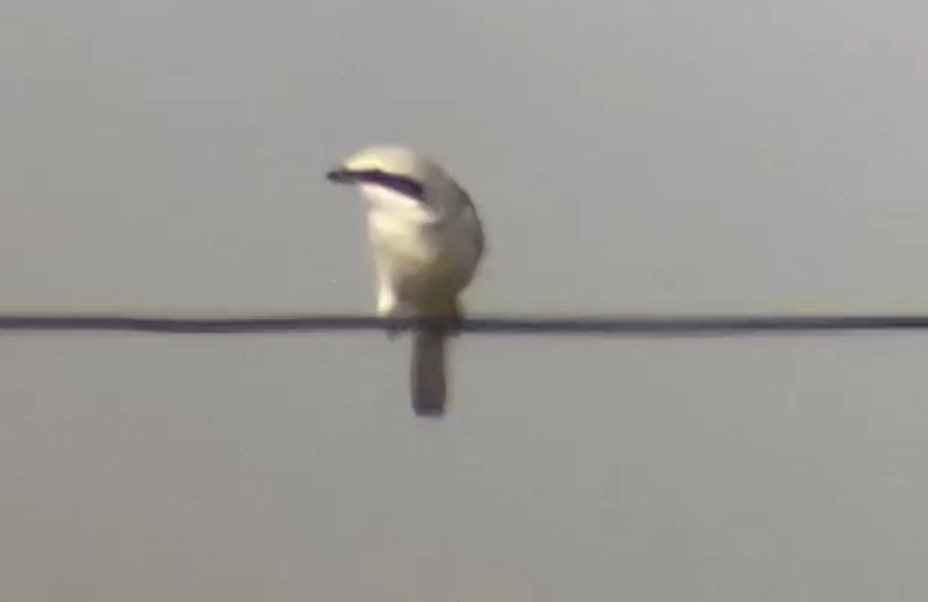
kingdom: Animalia
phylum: Chordata
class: Aves
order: Passeriformes
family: Laniidae
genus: Lanius
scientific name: Lanius excubitor
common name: Great grey shrike
